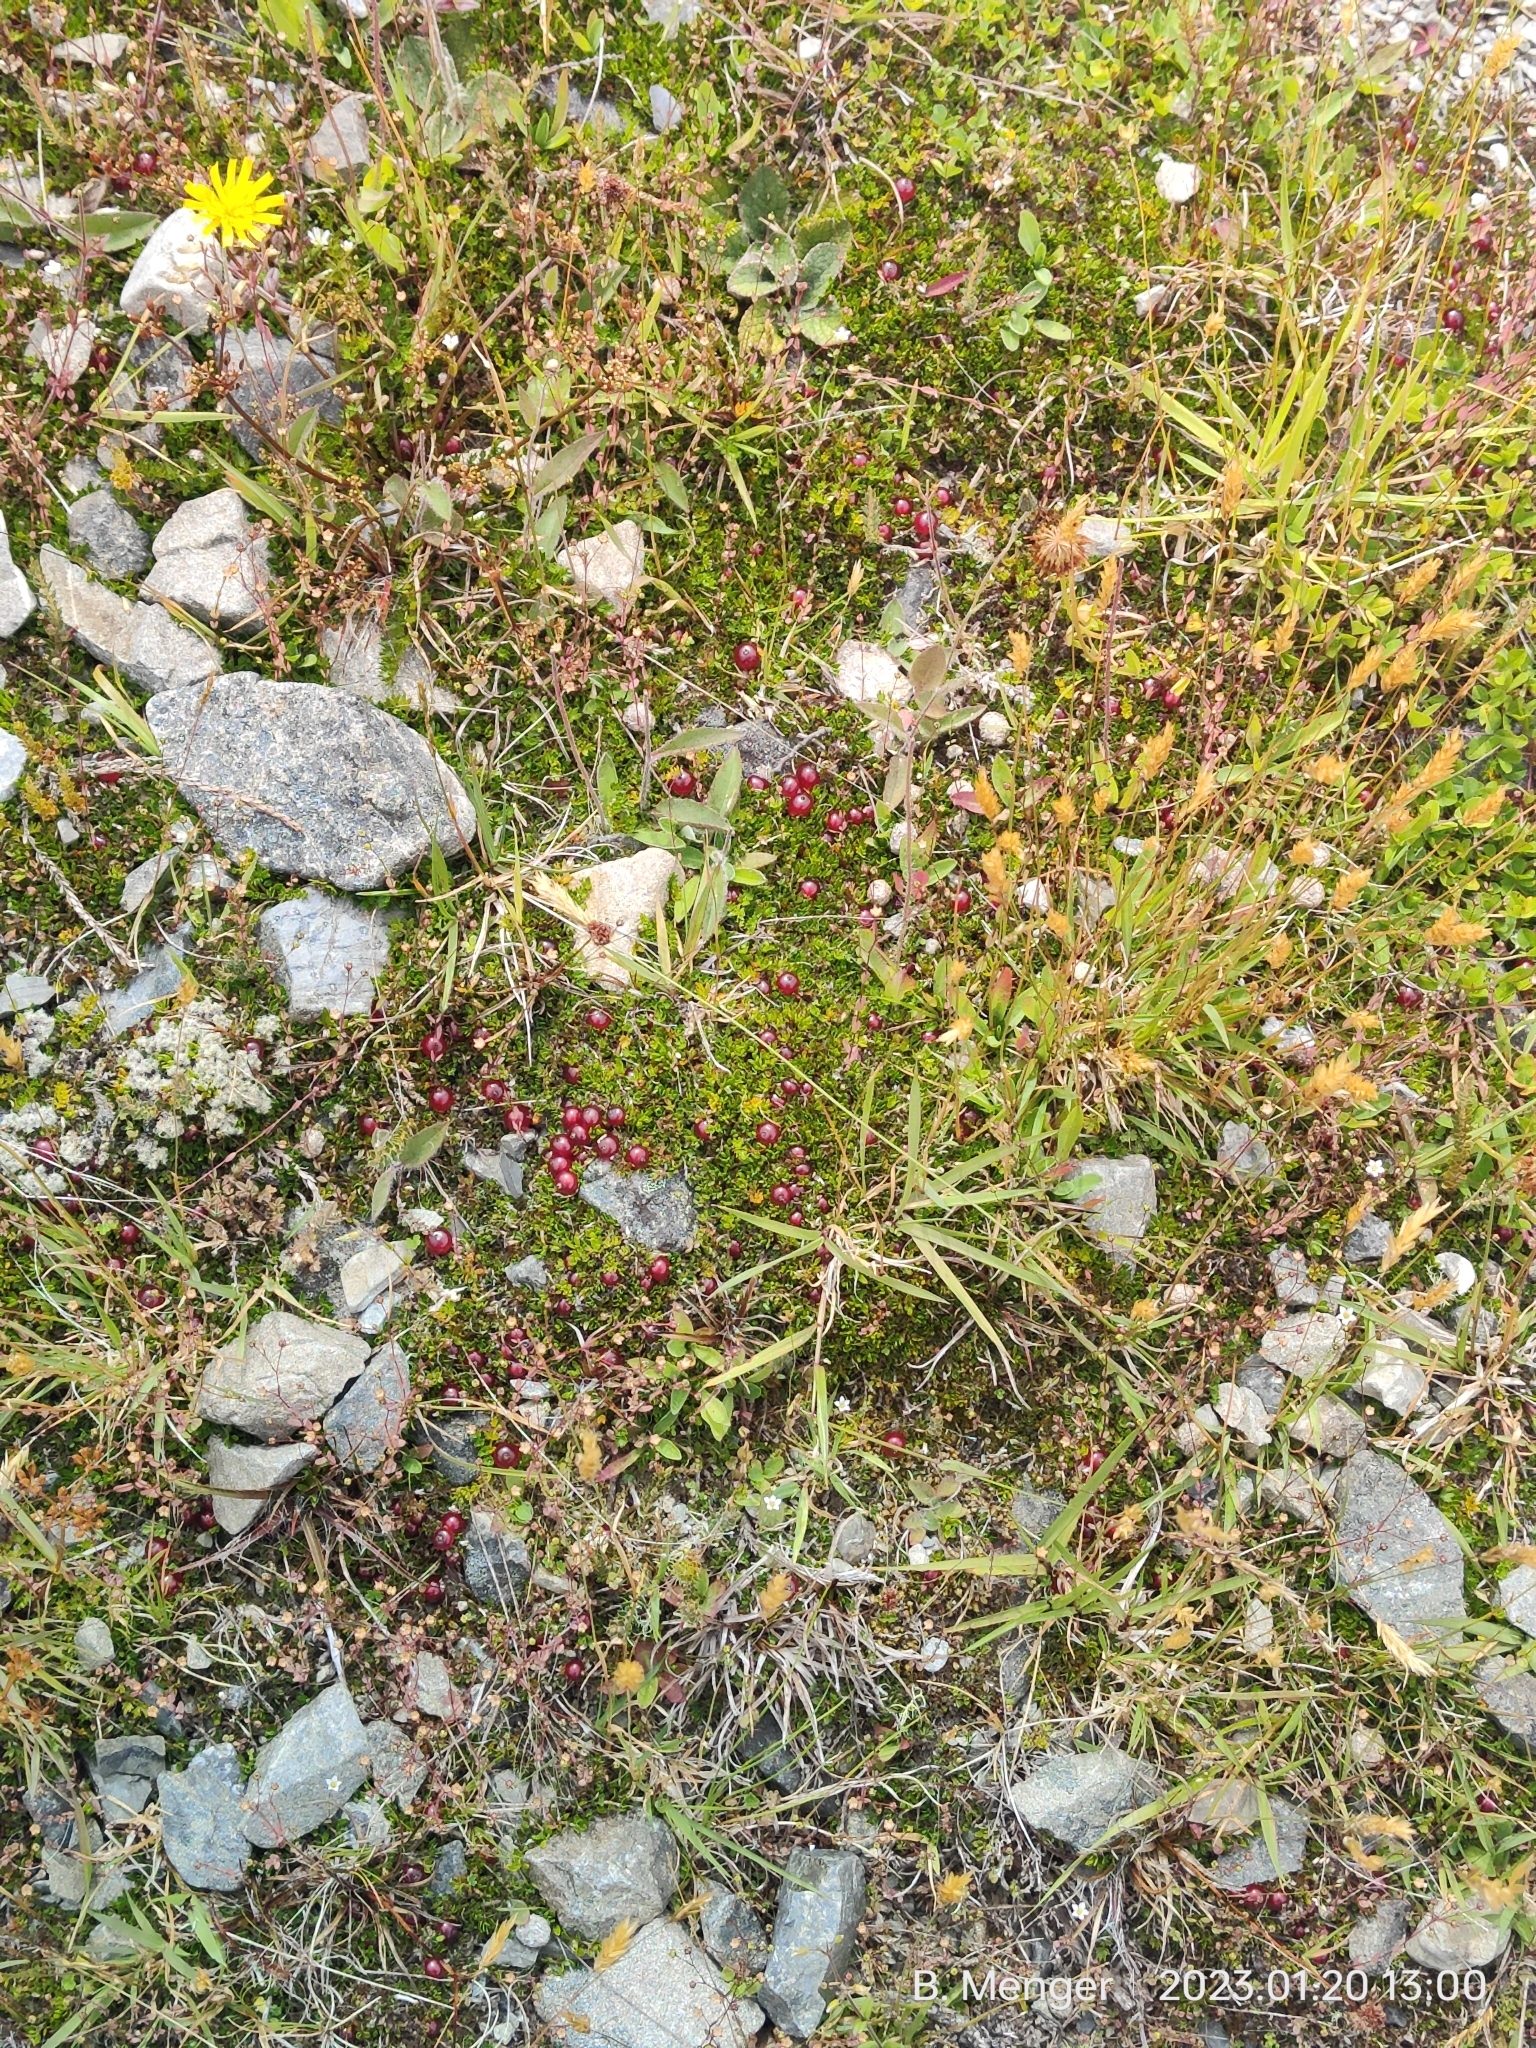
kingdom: Plantae
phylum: Tracheophyta
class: Magnoliopsida
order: Gentianales
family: Rubiaceae
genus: Coprosma
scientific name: Coprosma atropurpurea
